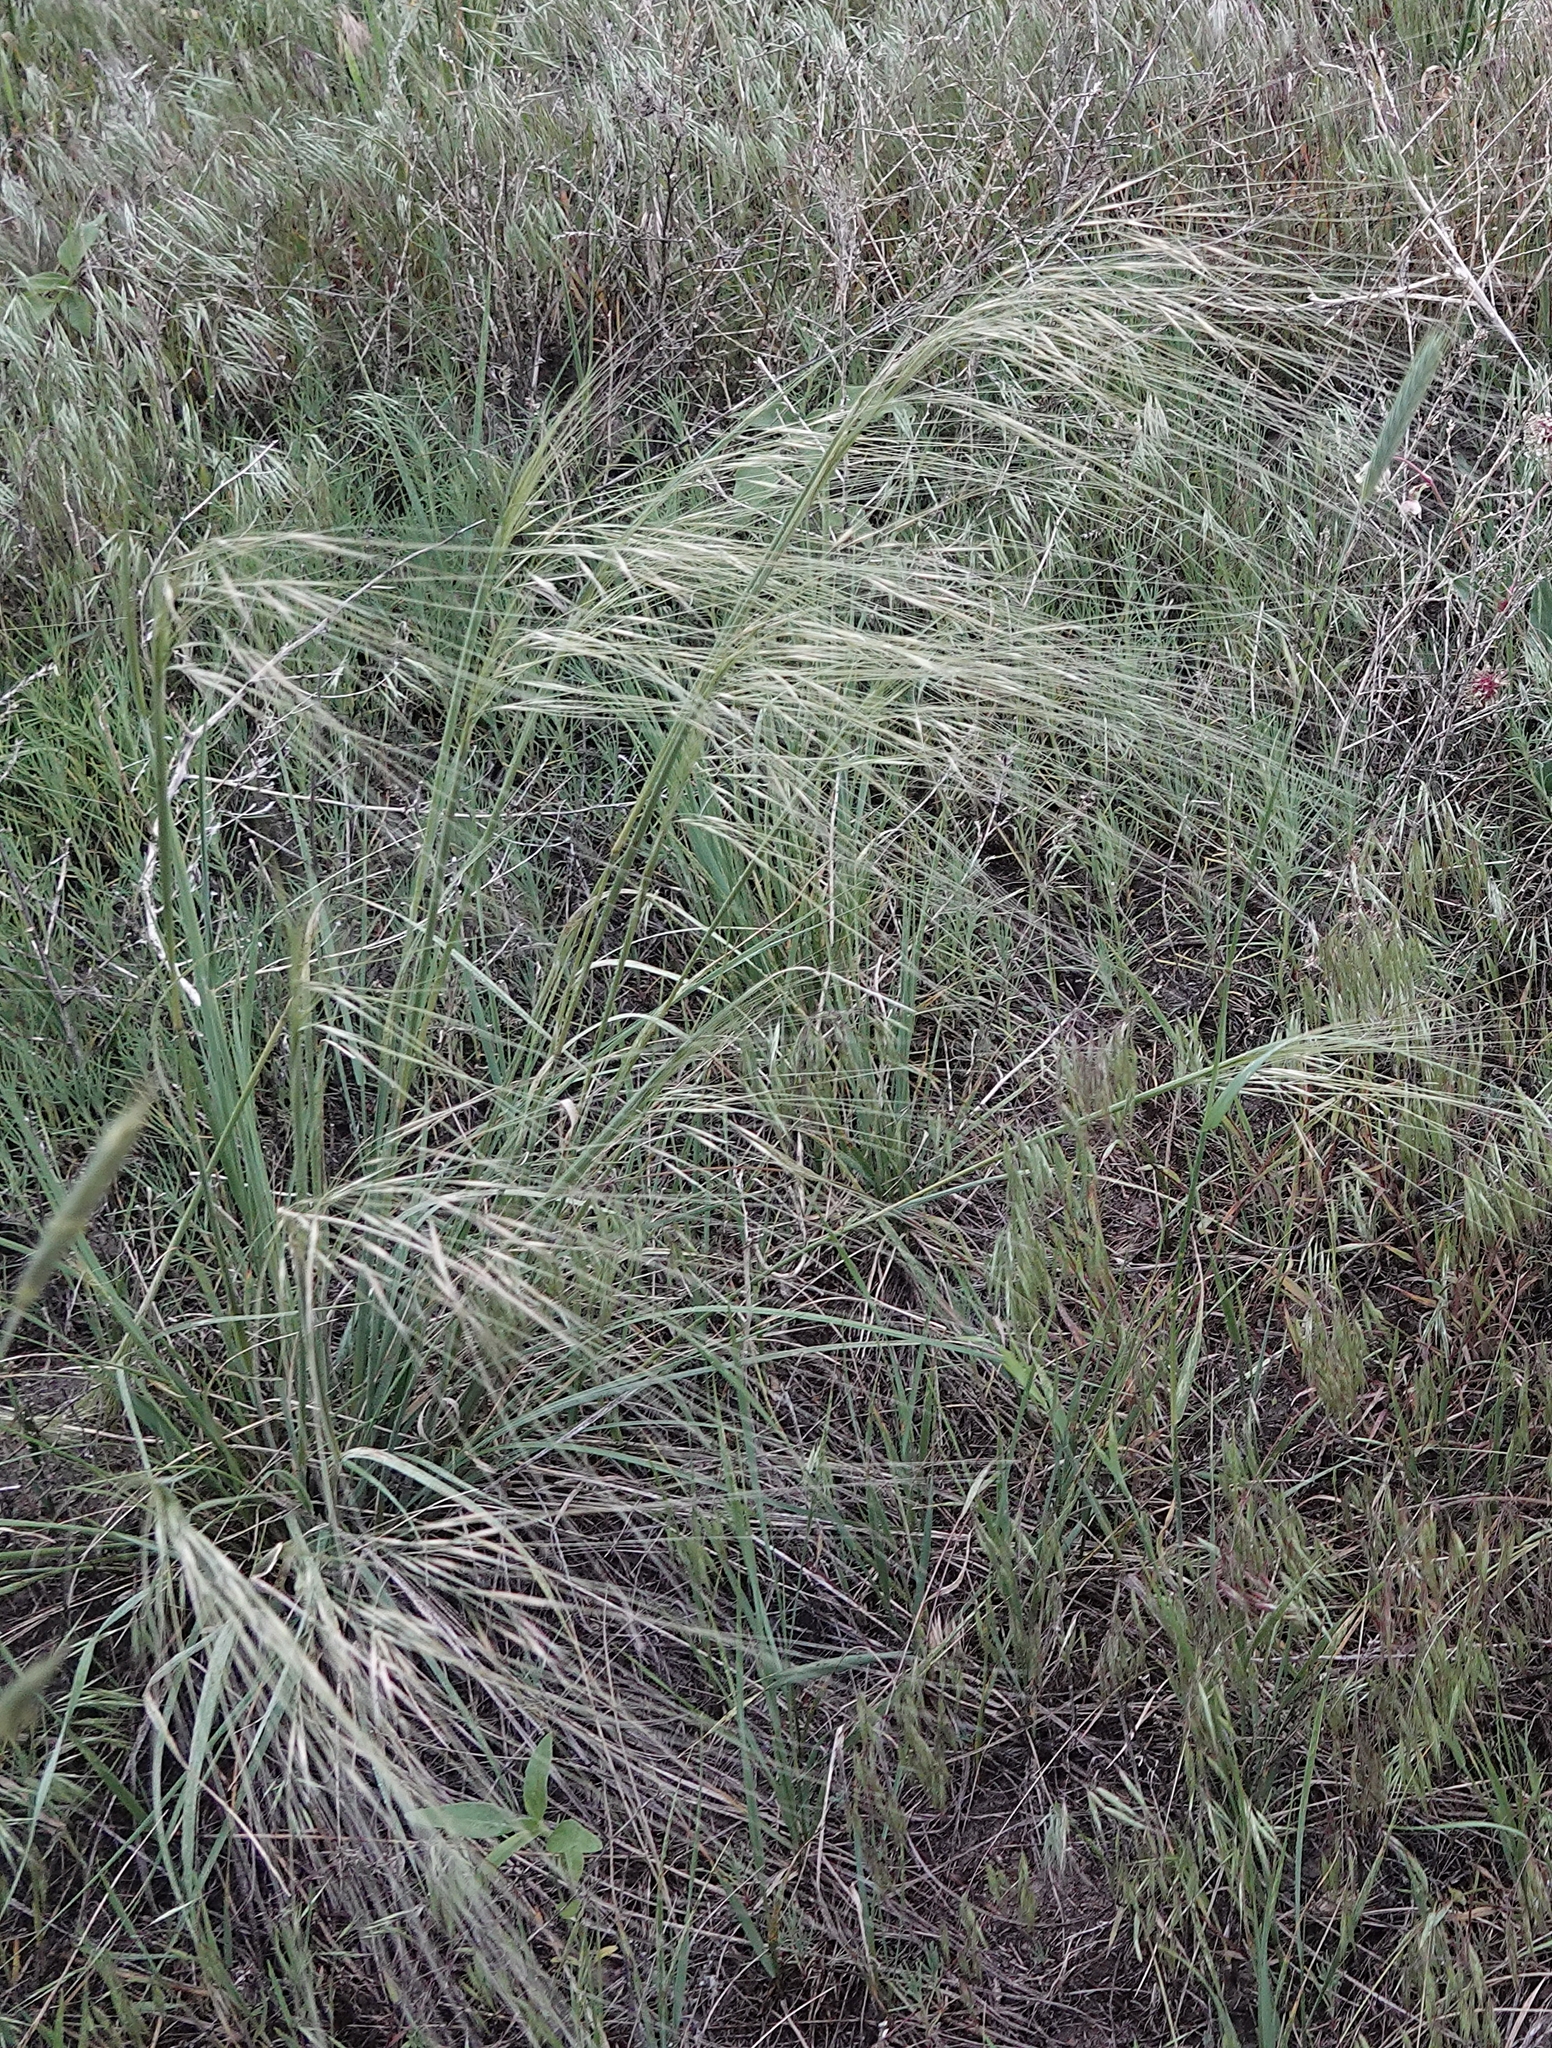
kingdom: Plantae
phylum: Tracheophyta
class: Liliopsida
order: Poales
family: Poaceae
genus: Hesperostipa
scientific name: Hesperostipa comata
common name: Needle-and-thread grass
